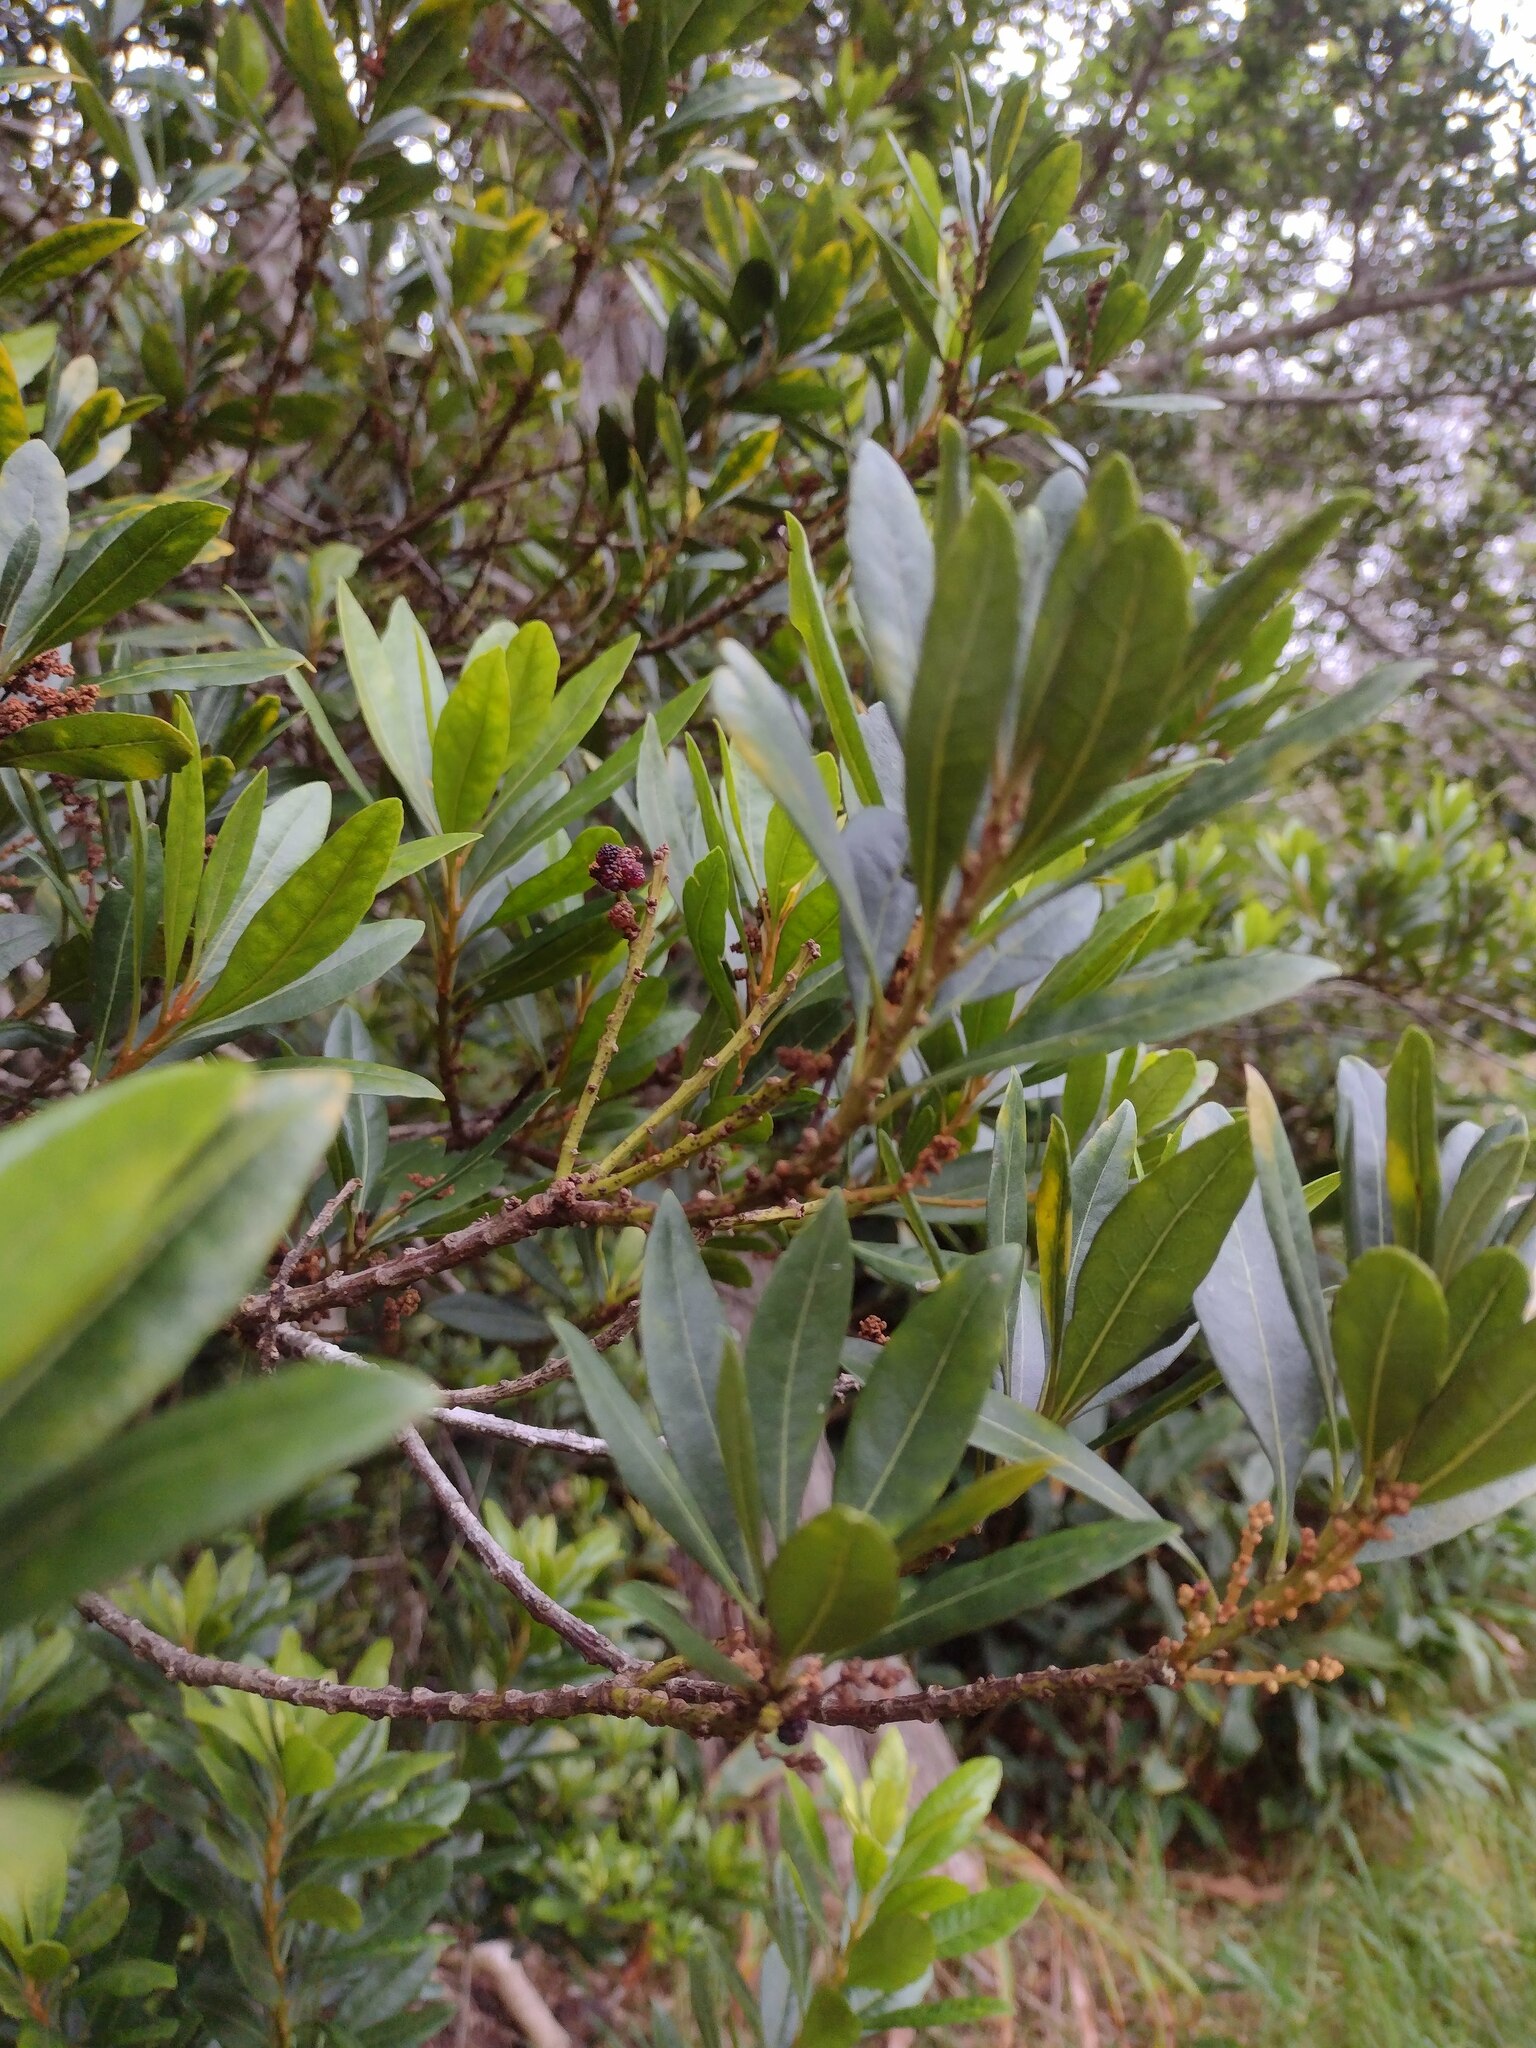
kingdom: Plantae
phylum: Tracheophyta
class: Magnoliopsida
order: Fagales
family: Myricaceae
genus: Morella
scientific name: Morella faya
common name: Firetree
